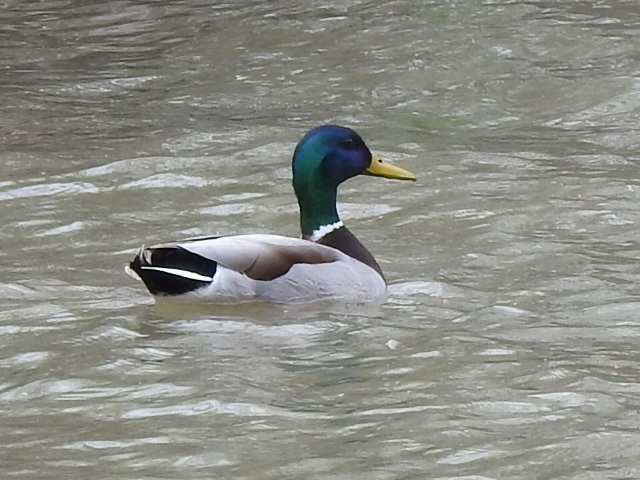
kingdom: Animalia
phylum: Chordata
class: Aves
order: Anseriformes
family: Anatidae
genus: Anas
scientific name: Anas platyrhynchos
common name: Mallard
